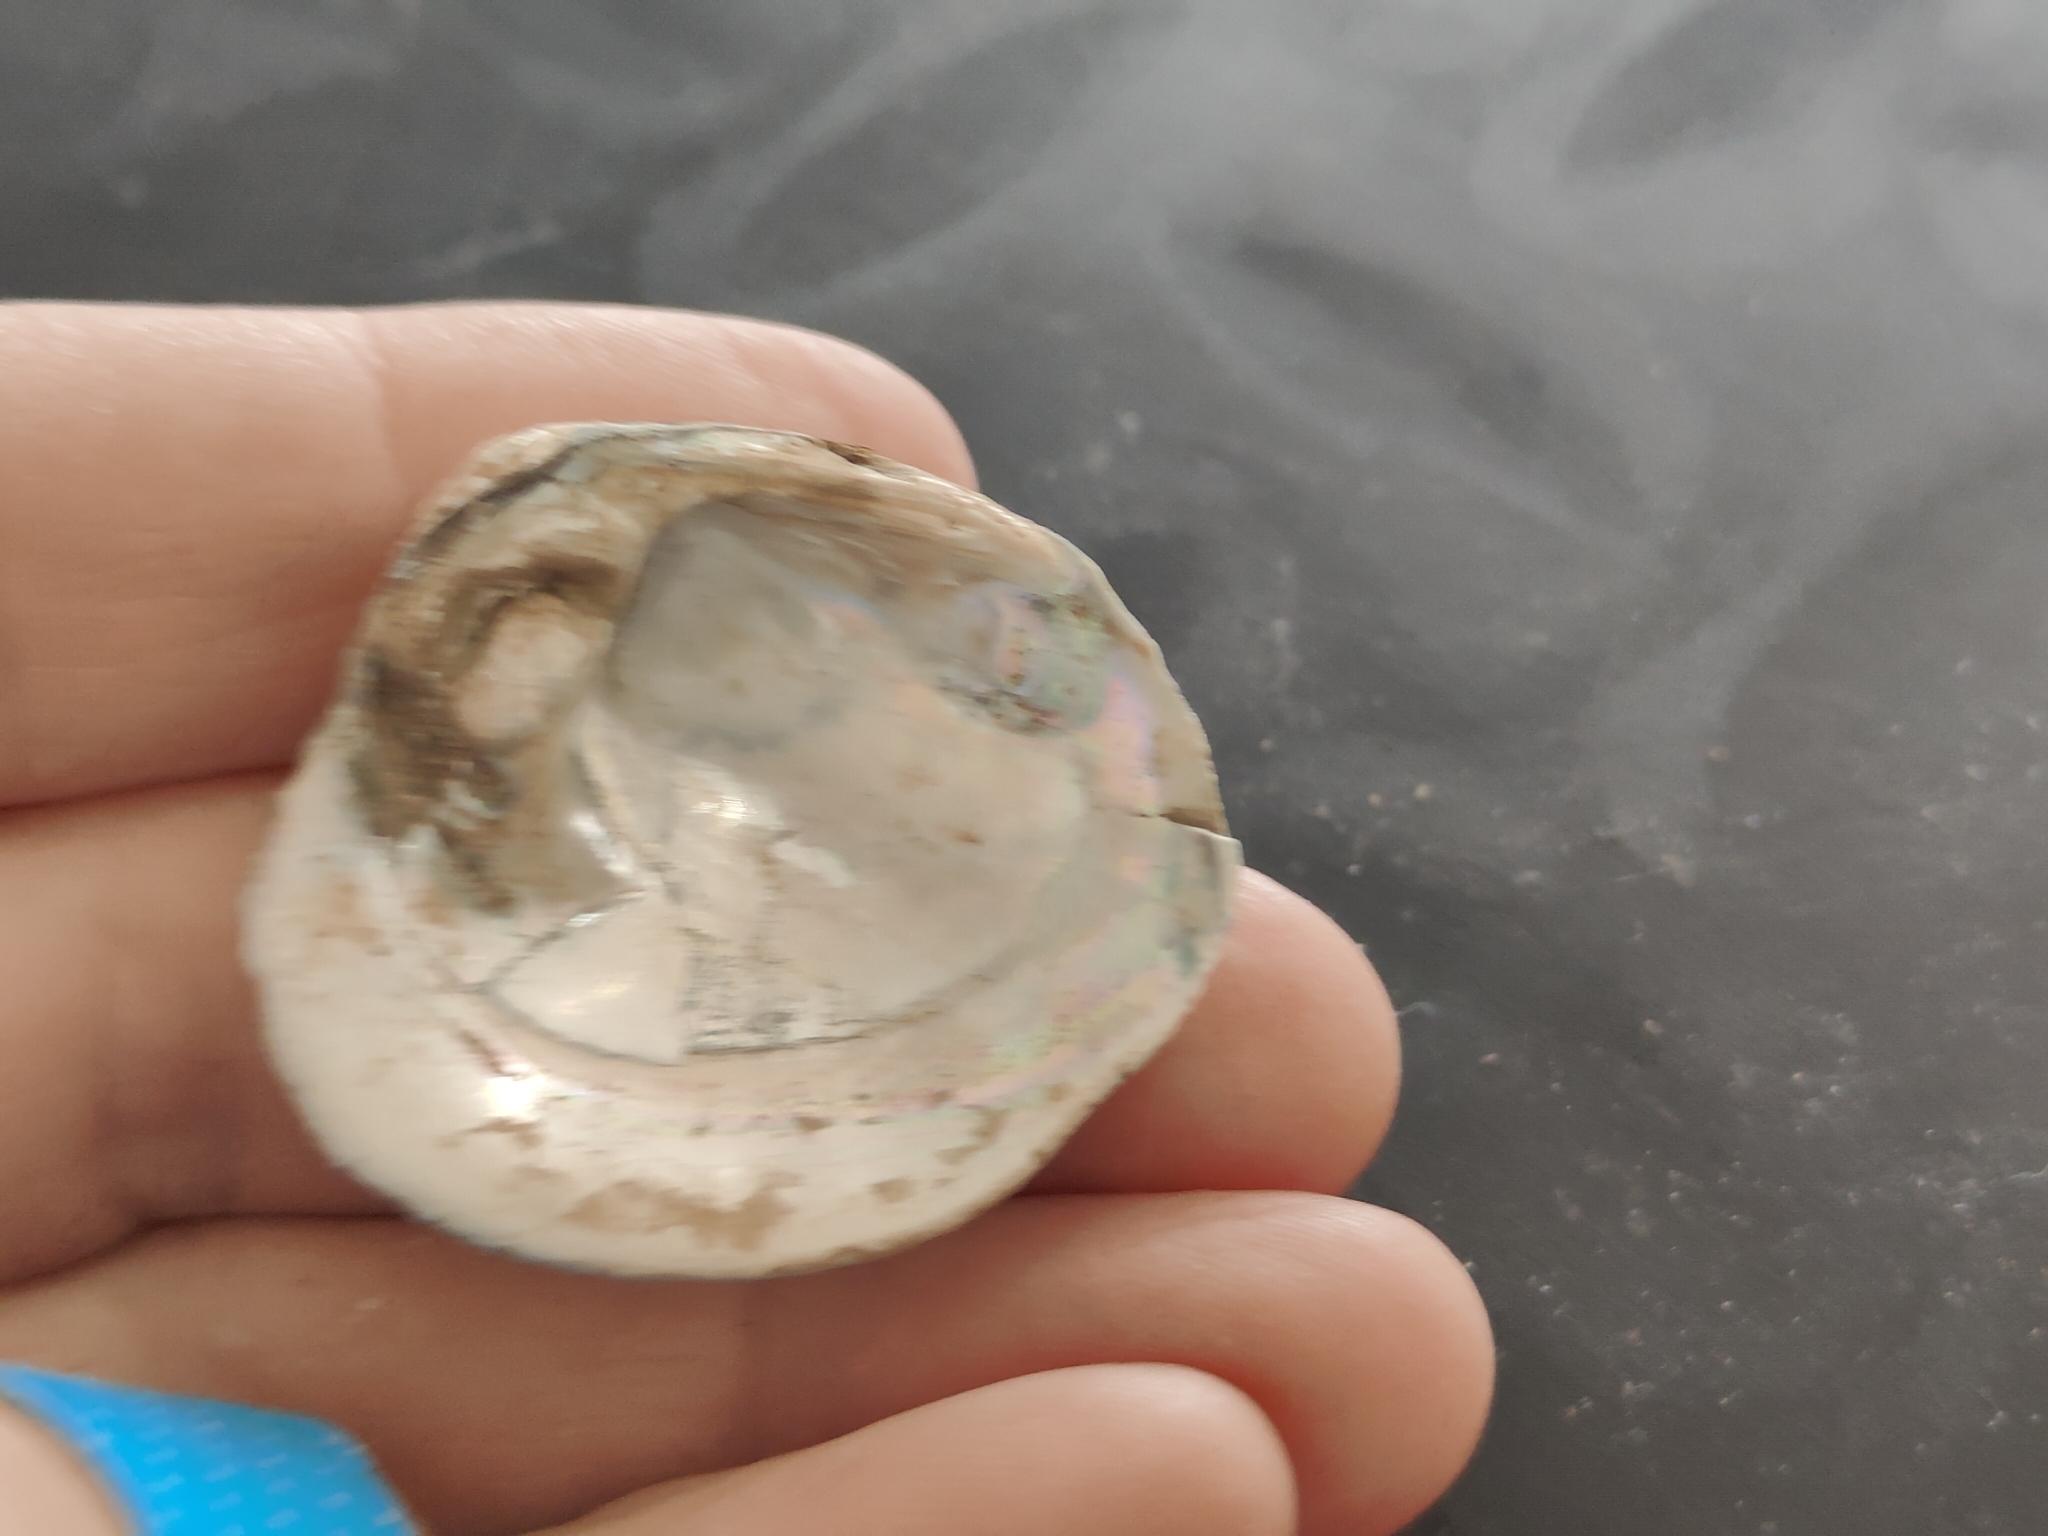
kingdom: Animalia
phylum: Mollusca
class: Bivalvia
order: Unionida
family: Unionidae
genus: Cyclonaias
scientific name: Cyclonaias pustulosa
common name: Pimpleback
